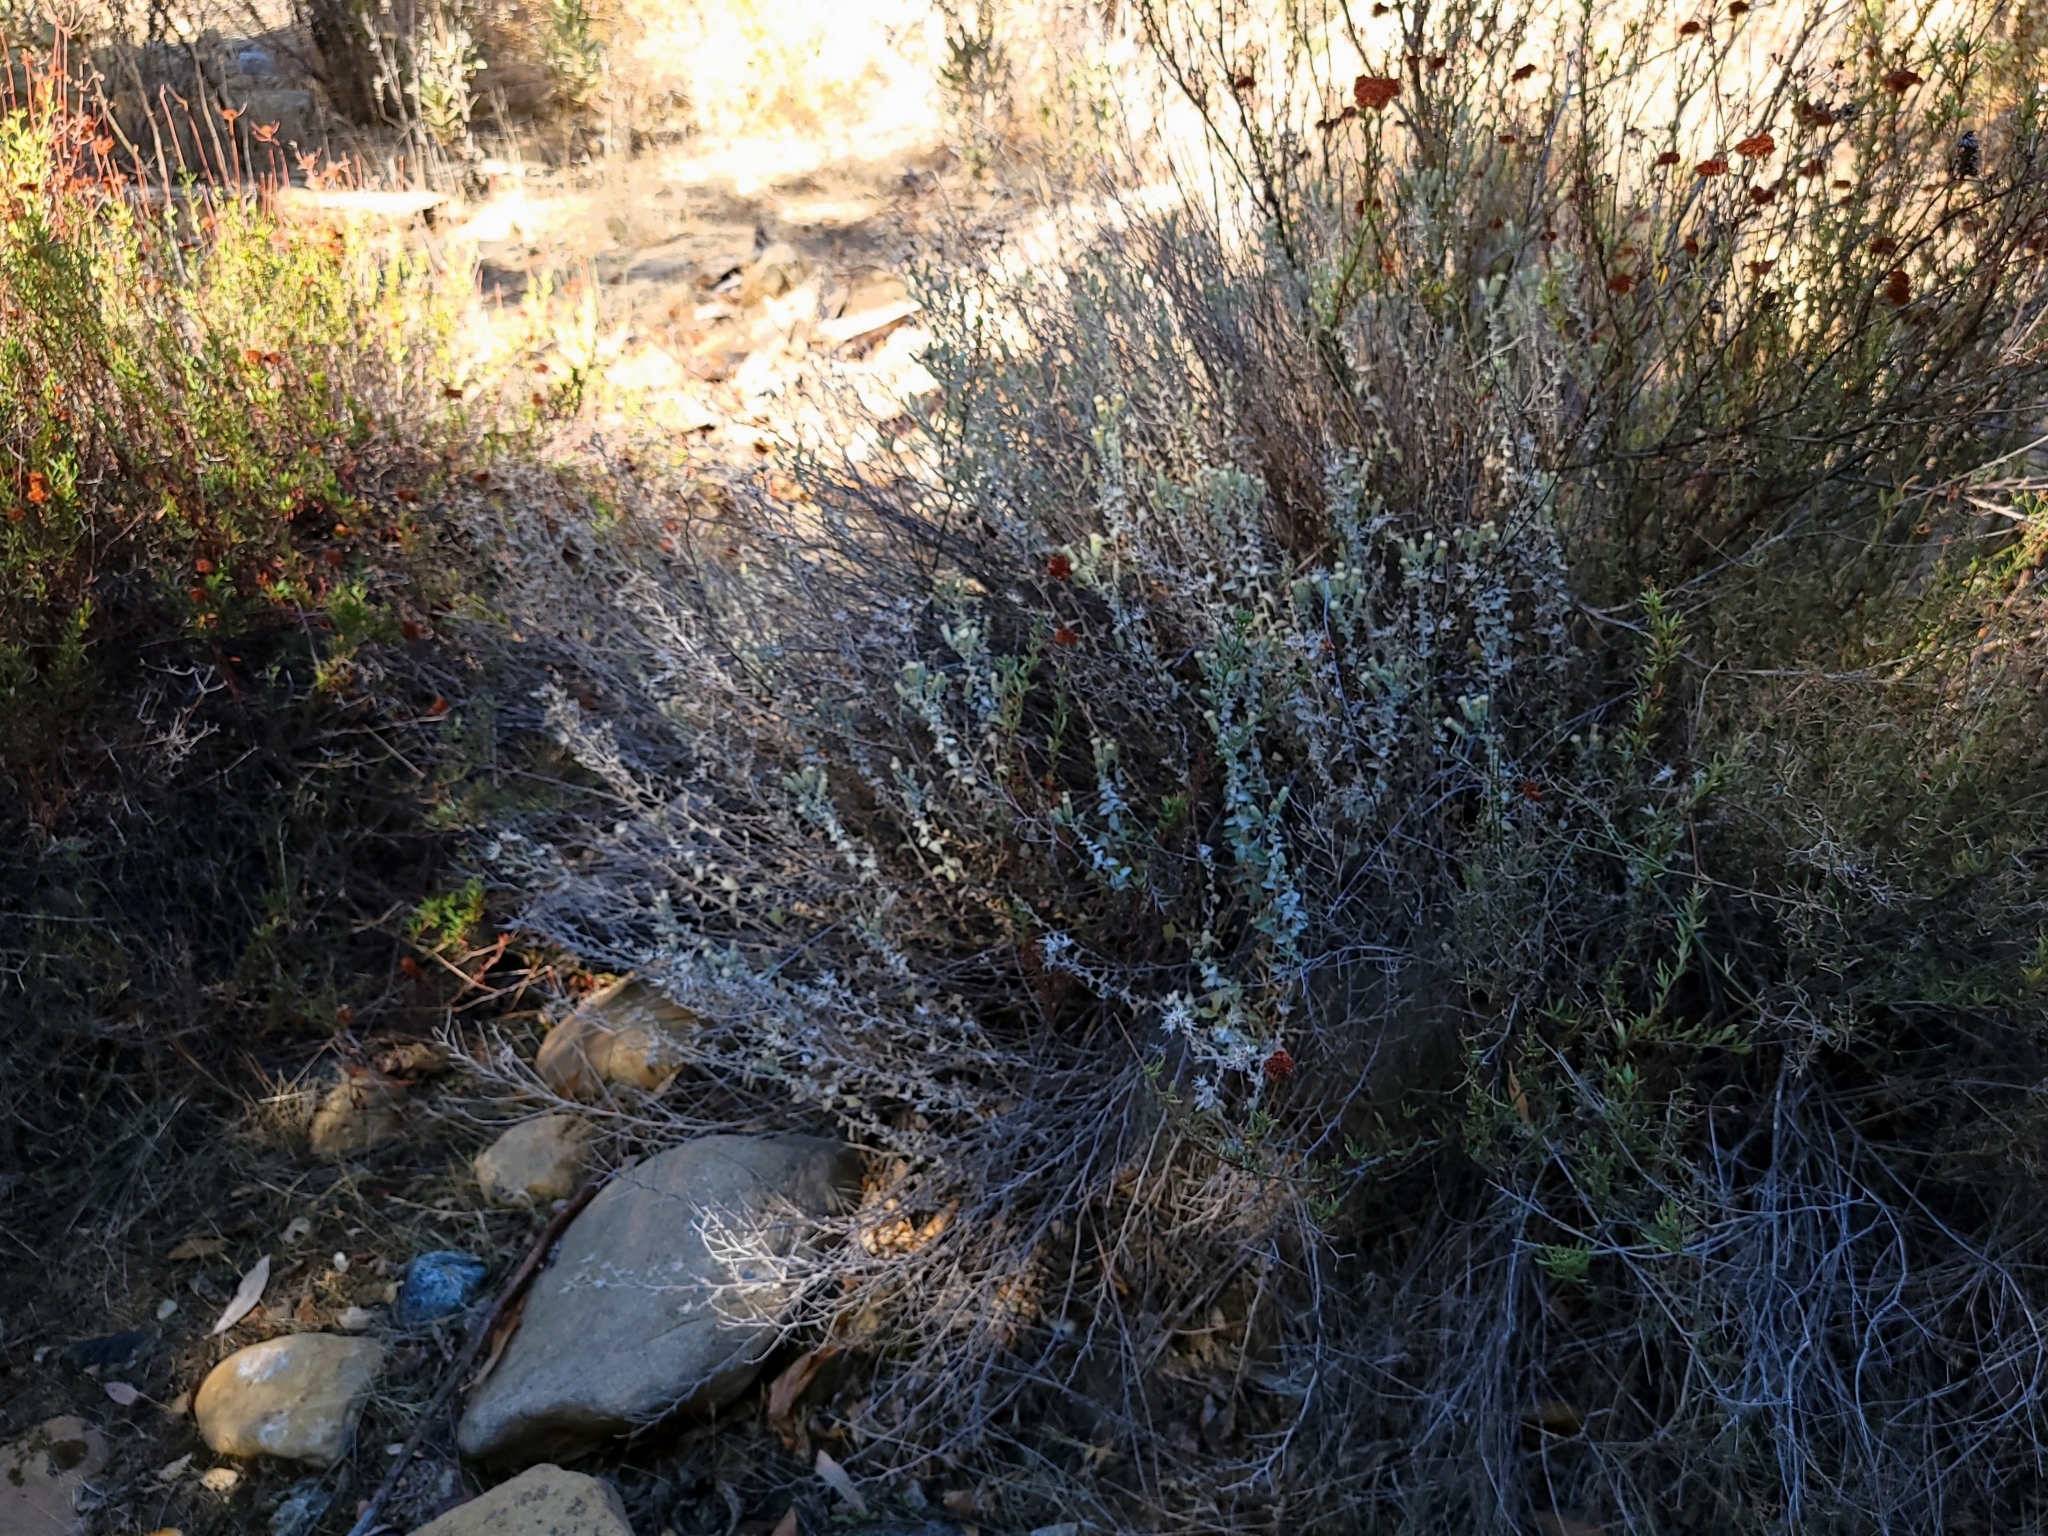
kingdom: Plantae
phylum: Tracheophyta
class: Magnoliopsida
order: Asterales
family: Asteraceae
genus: Brickellia
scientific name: Brickellia nevinii
